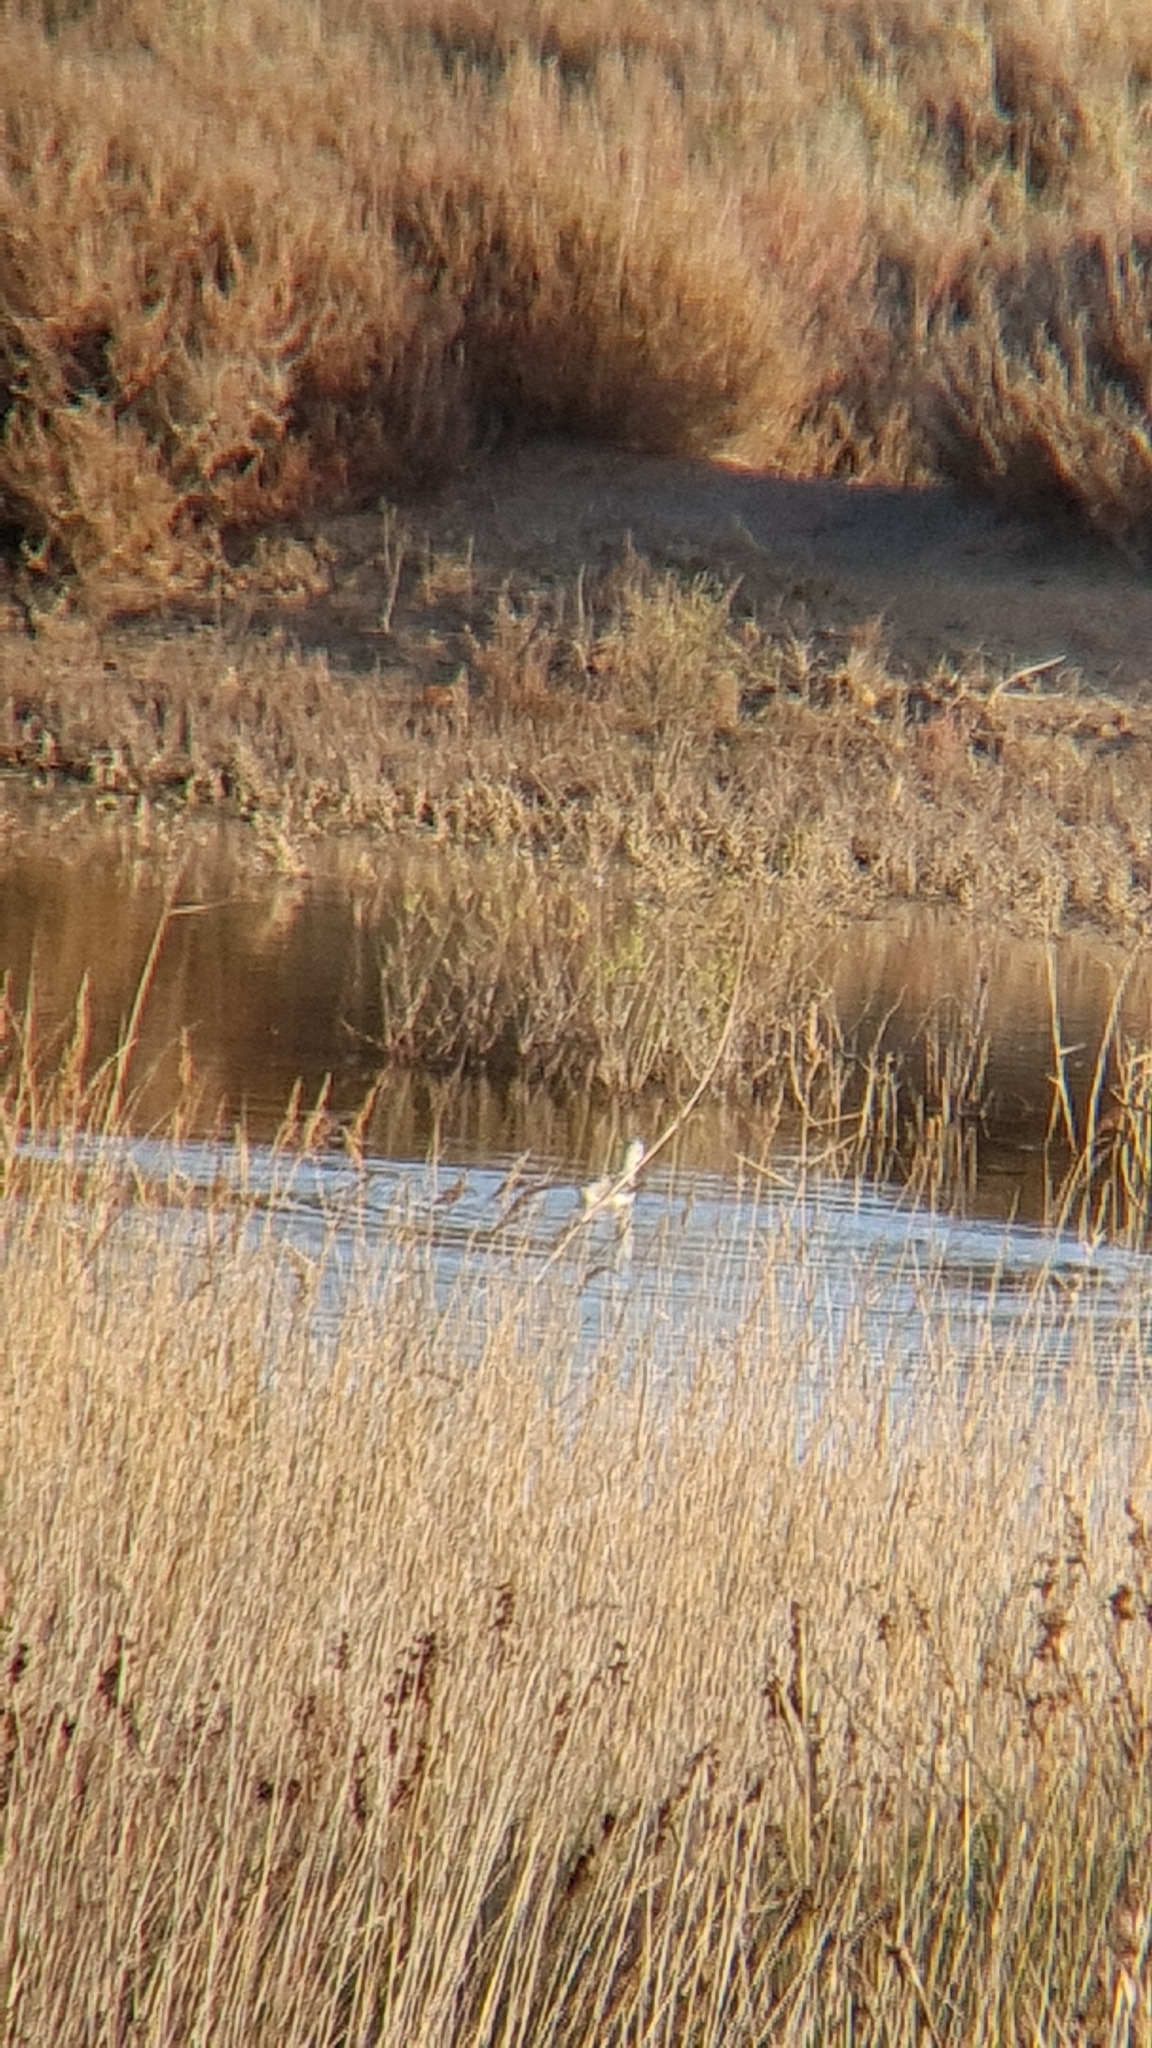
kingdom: Animalia
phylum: Chordata
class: Aves
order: Charadriiformes
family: Scolopacidae
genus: Tringa
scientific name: Tringa nebularia
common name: Common greenshank
